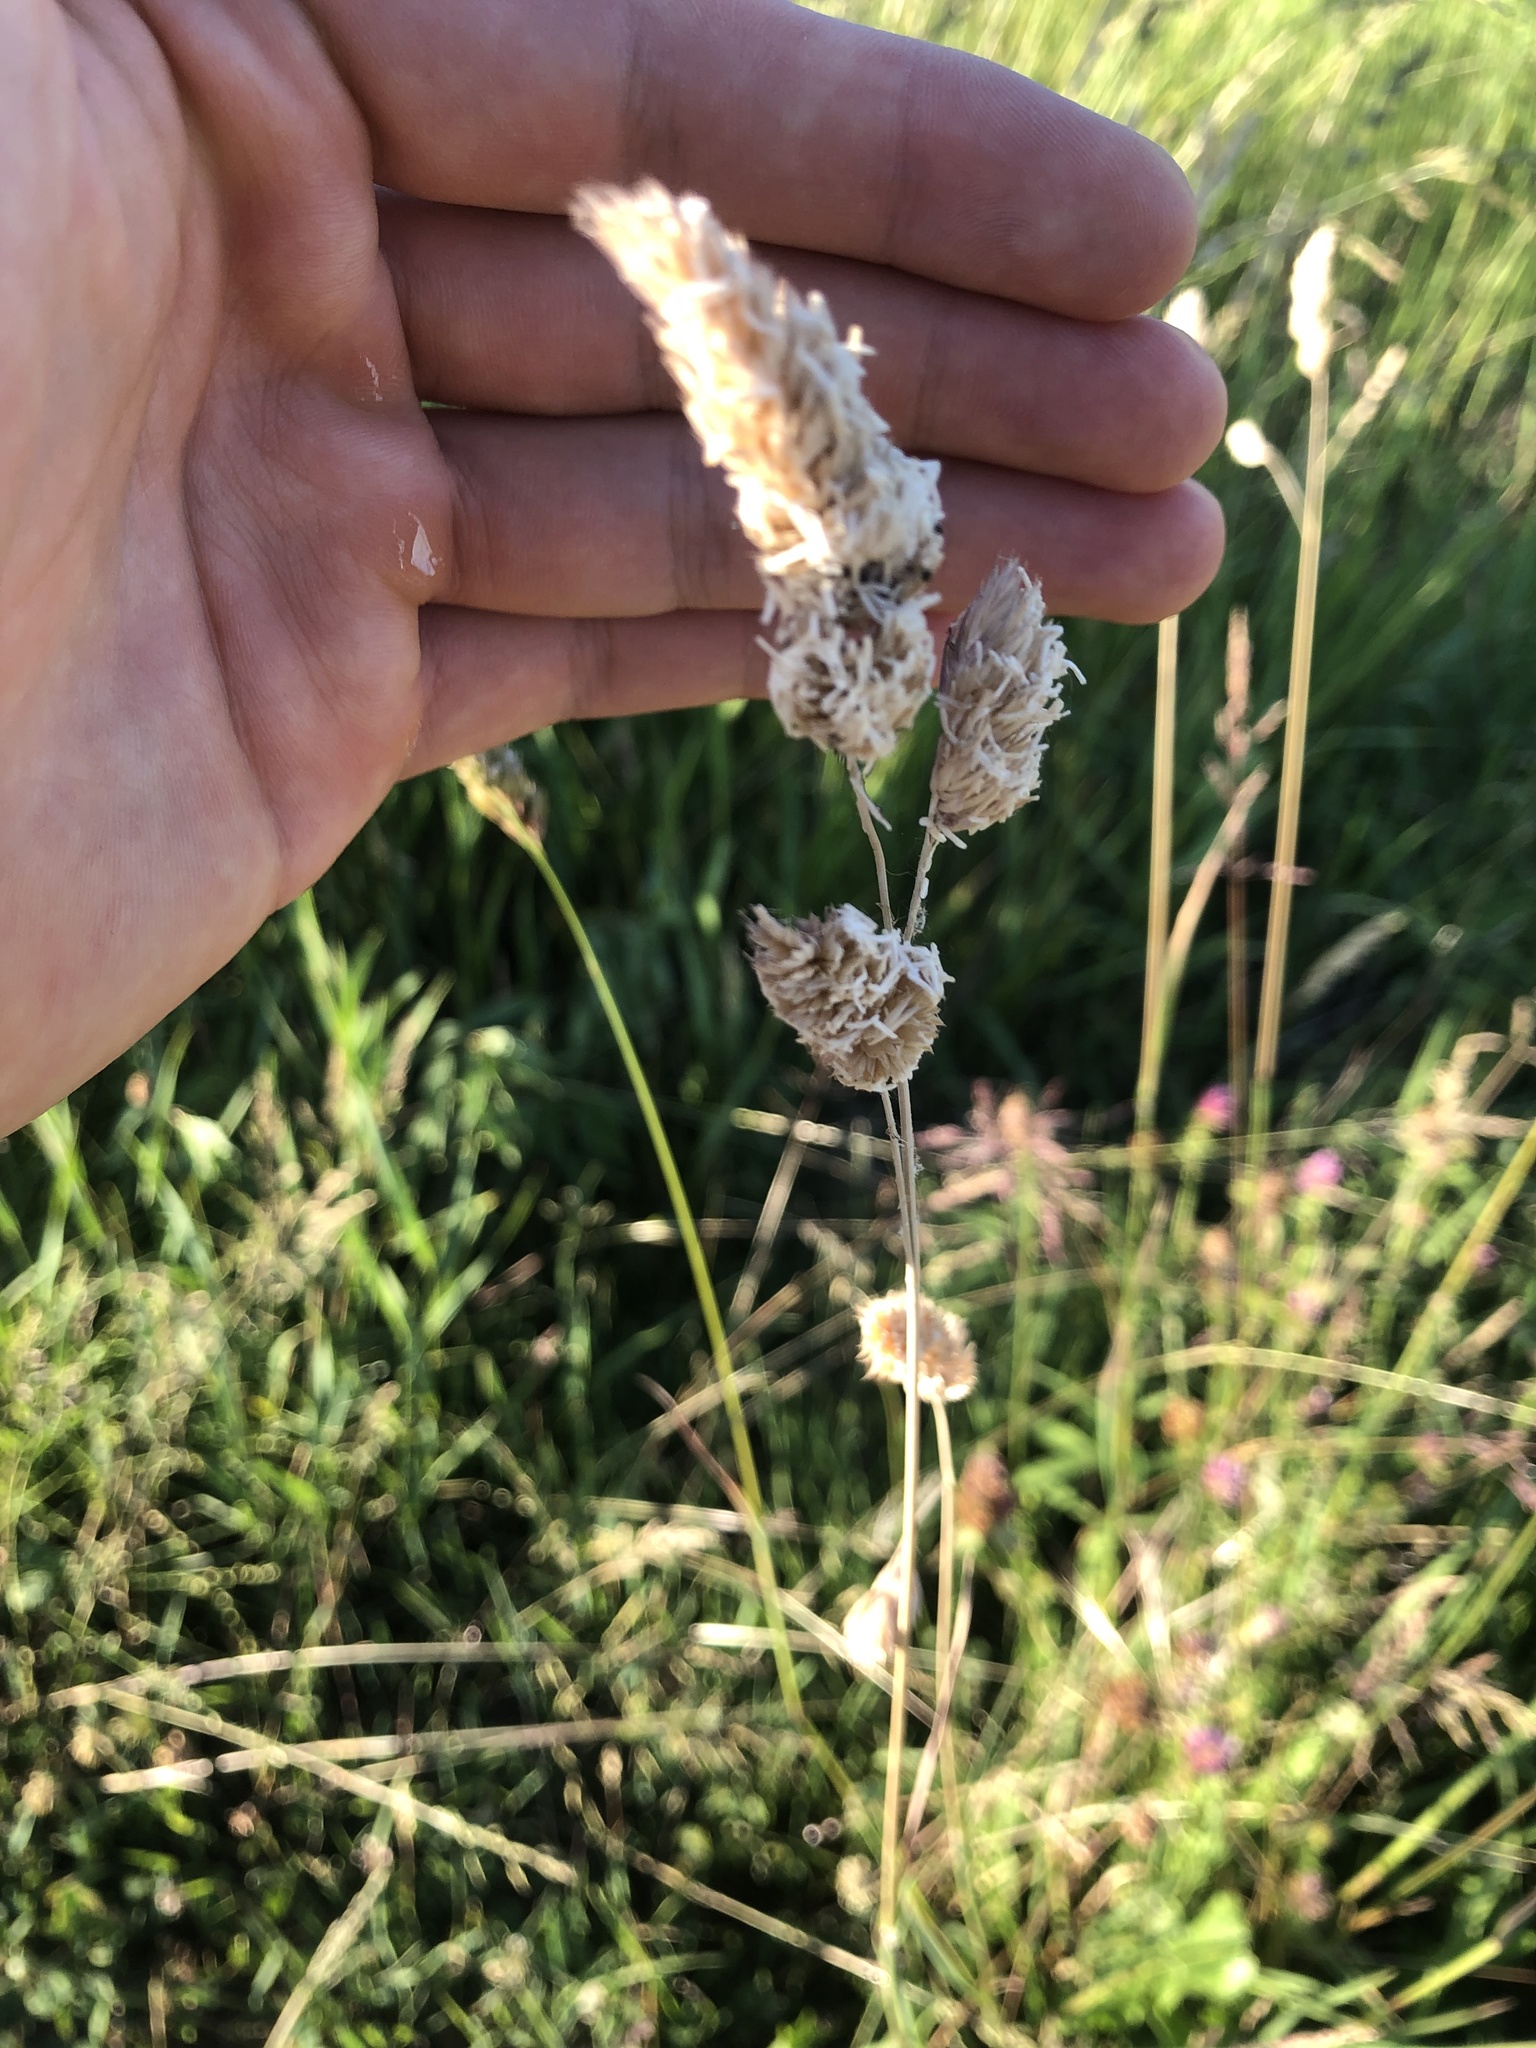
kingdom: Plantae
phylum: Tracheophyta
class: Liliopsida
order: Poales
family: Poaceae
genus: Dactylis
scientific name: Dactylis glomerata
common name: Orchardgrass
